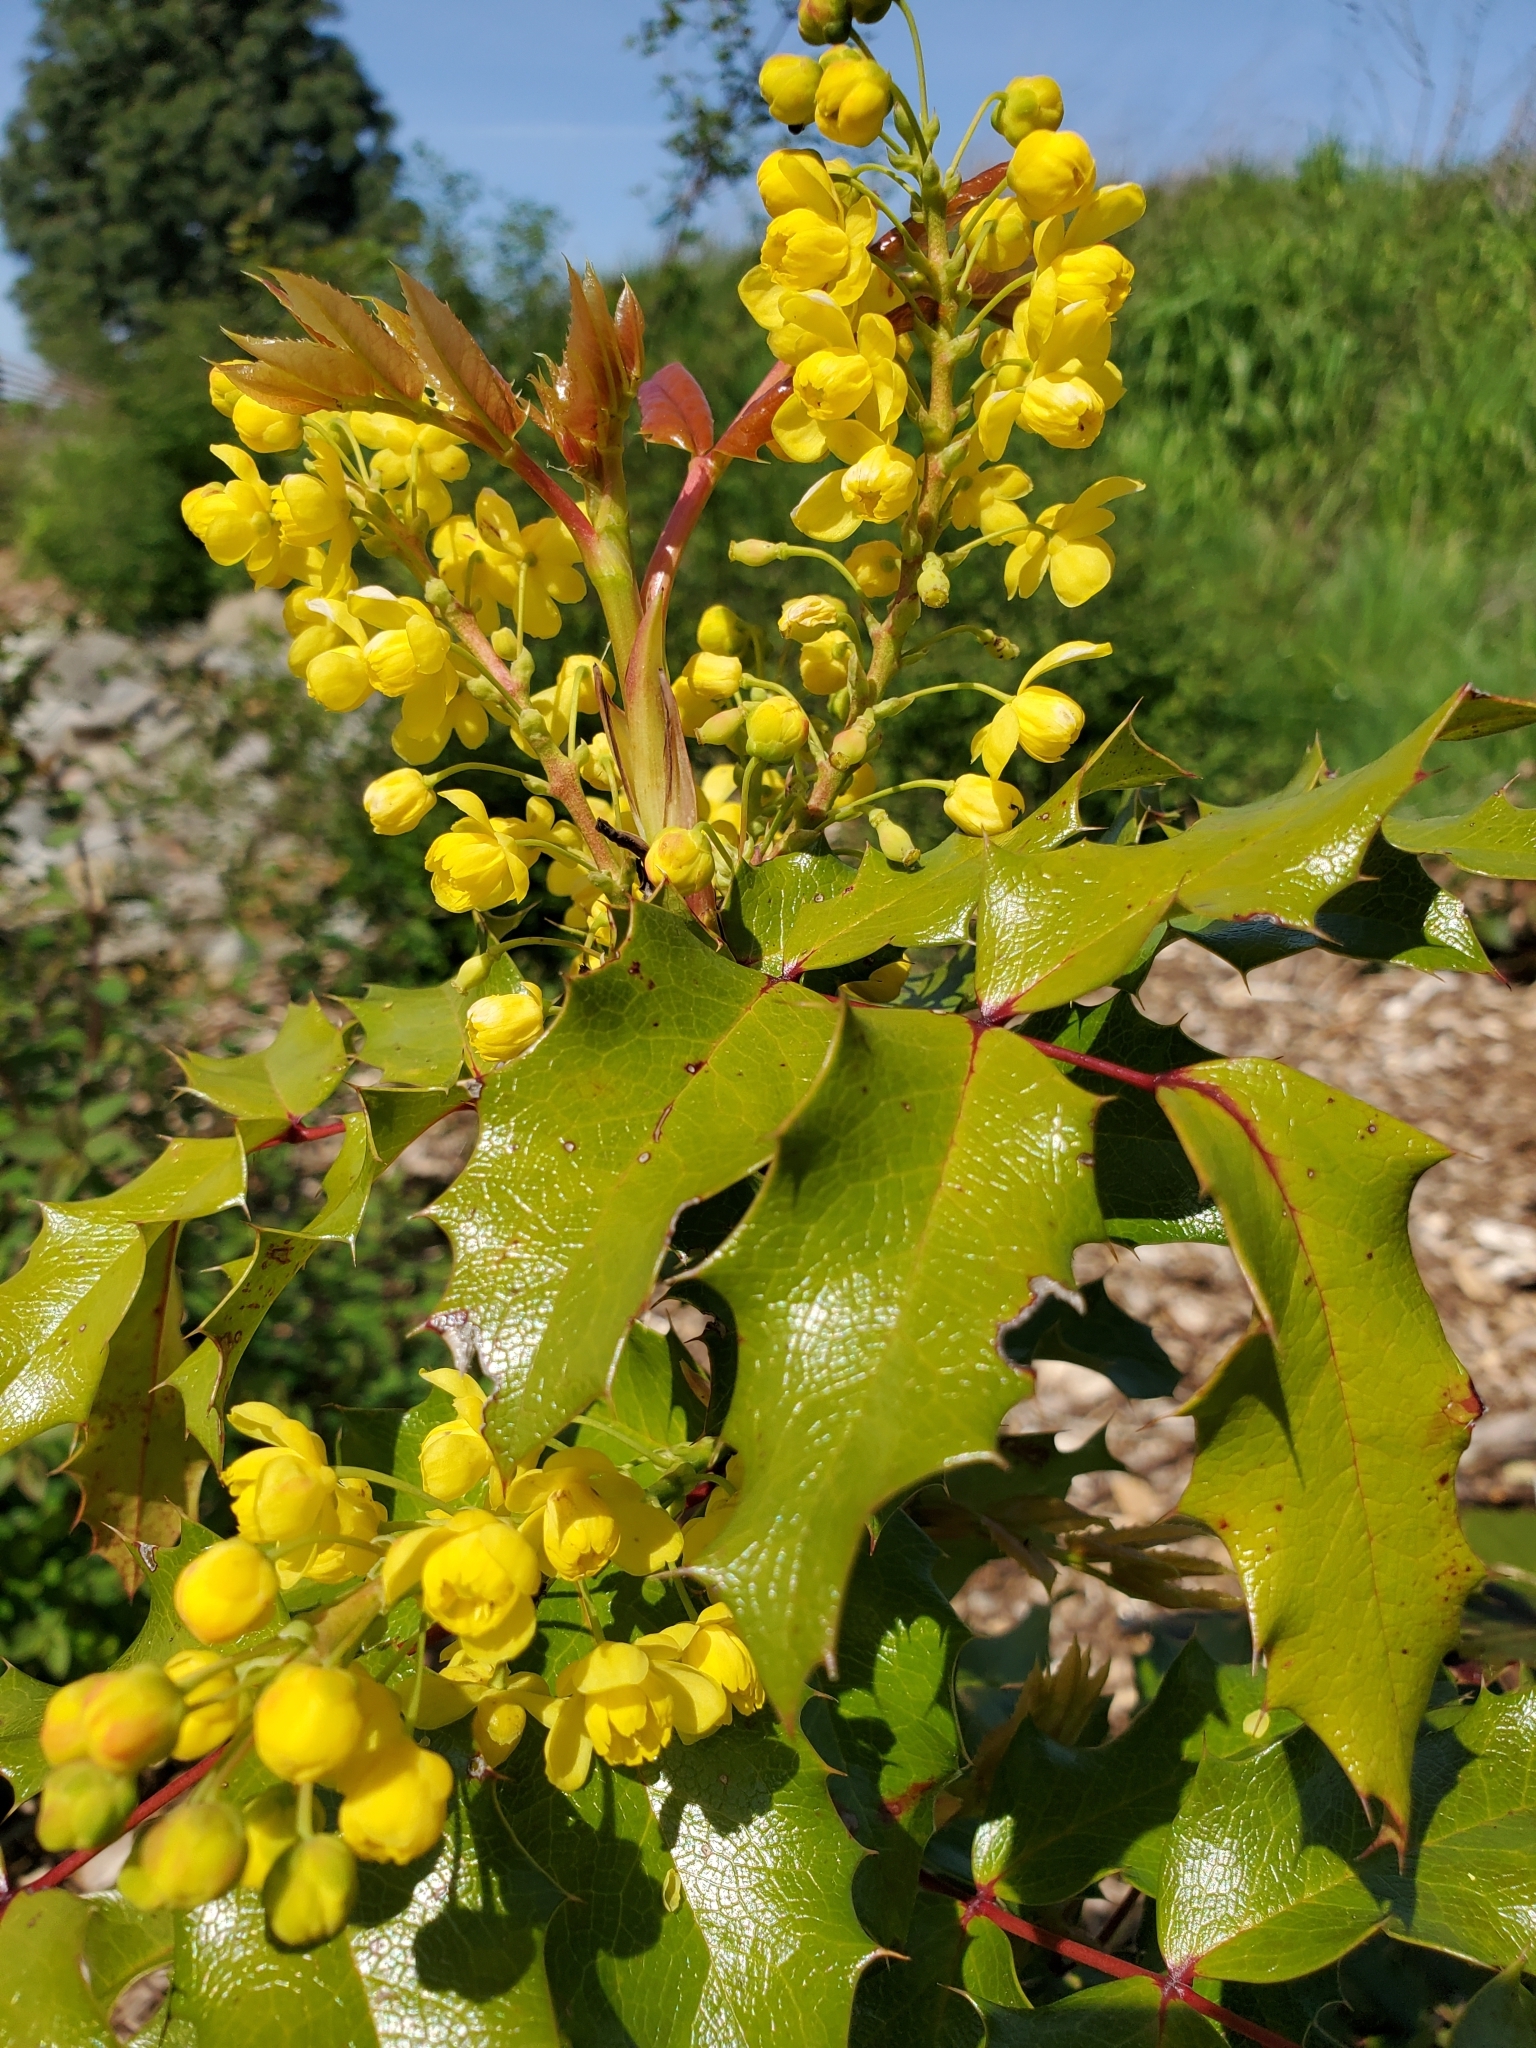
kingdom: Plantae
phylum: Tracheophyta
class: Magnoliopsida
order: Ranunculales
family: Berberidaceae
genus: Mahonia
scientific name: Mahonia aquifolium
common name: Oregon-grape
